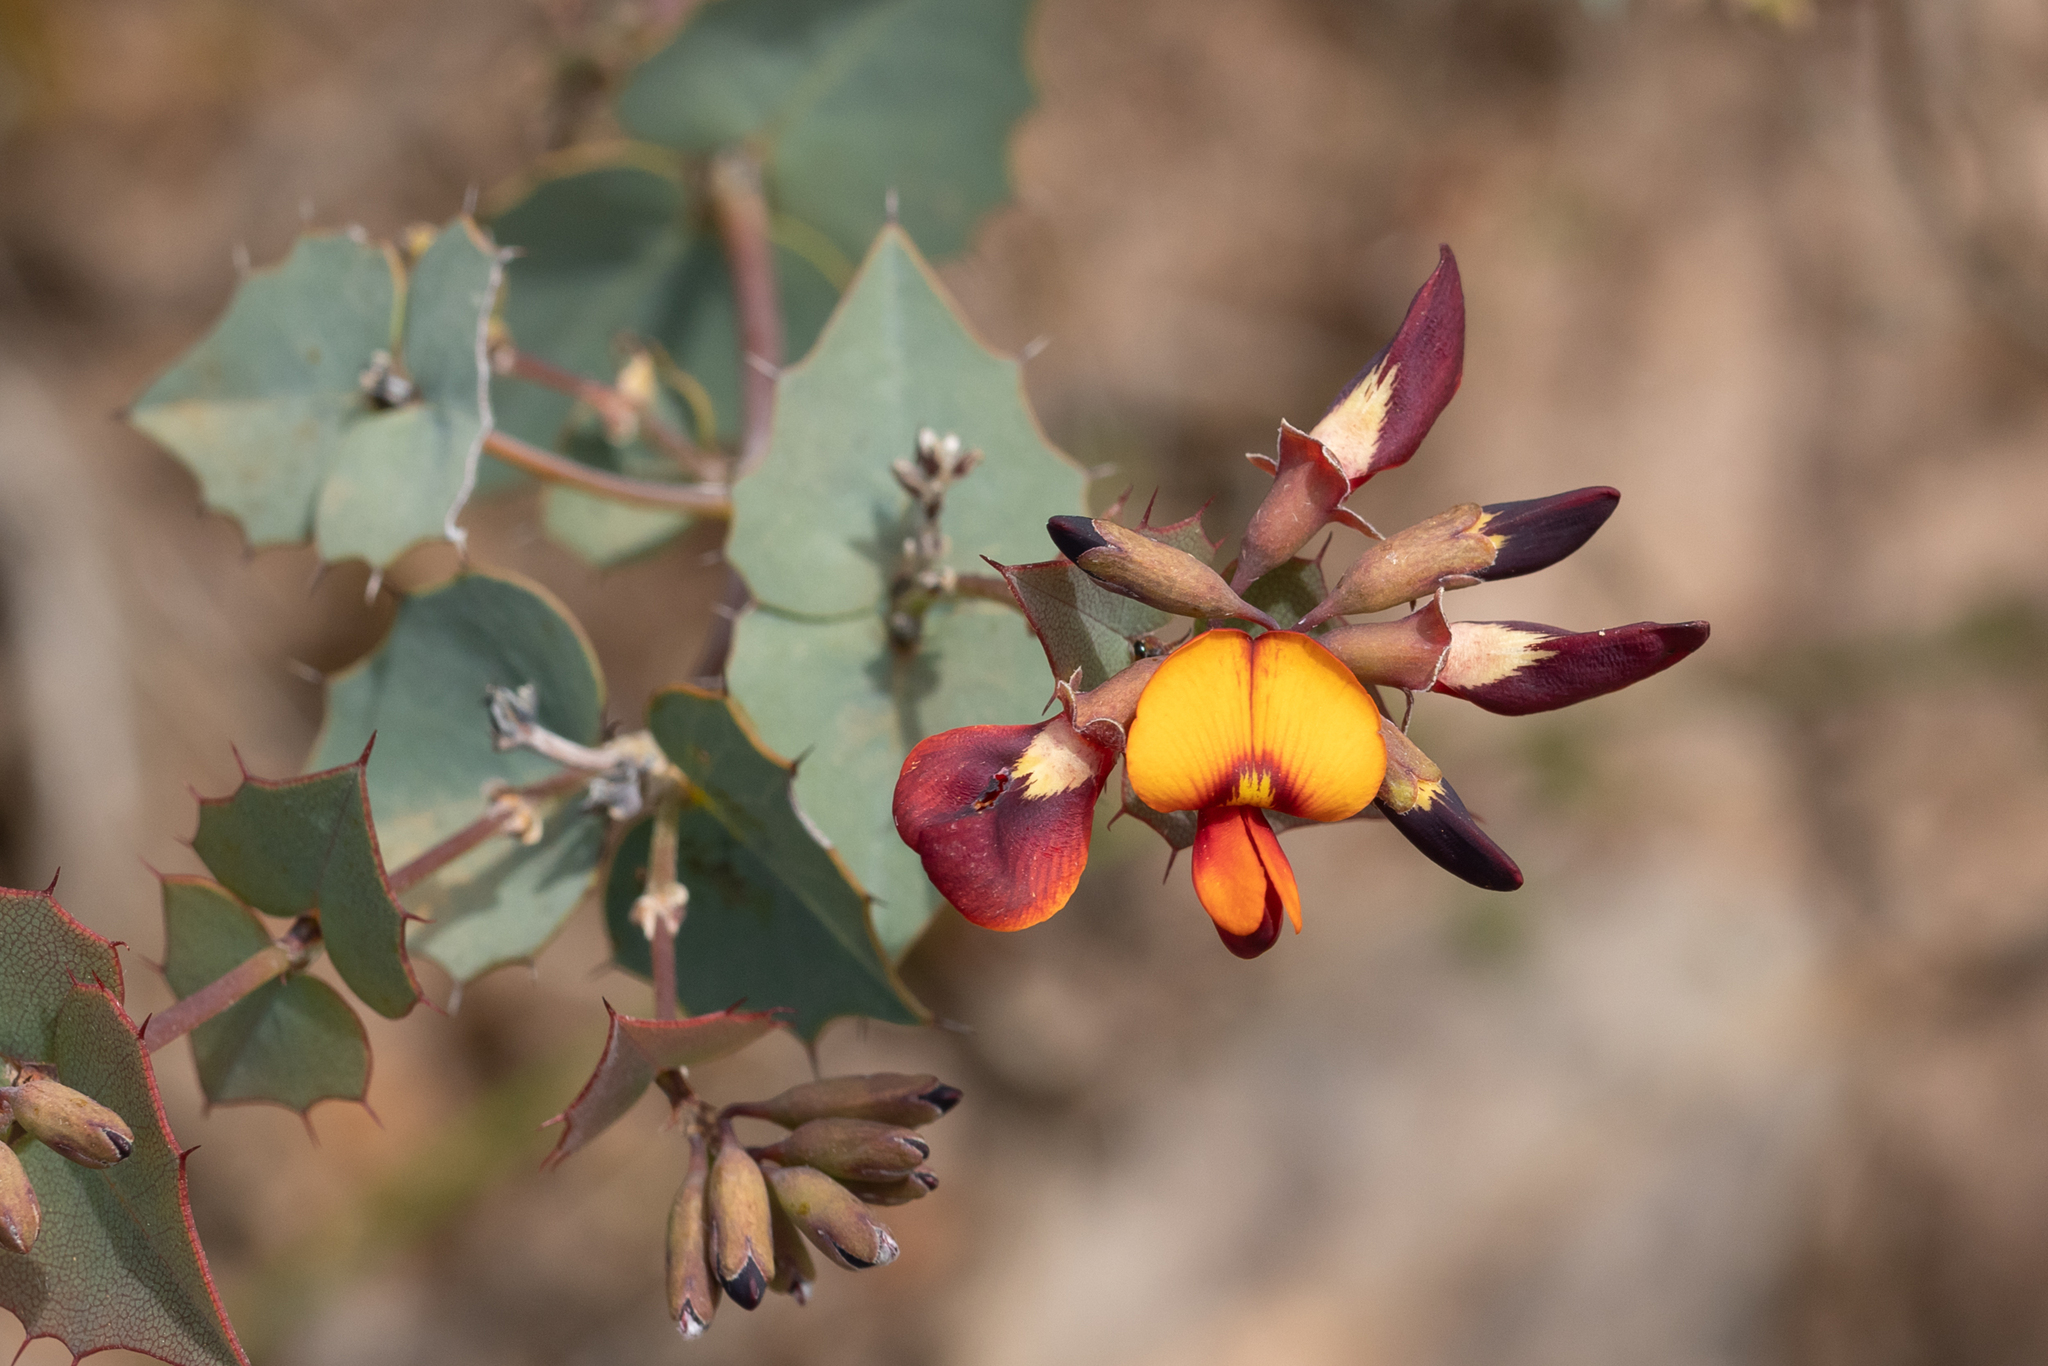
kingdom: Plantae
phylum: Tracheophyta
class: Magnoliopsida
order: Fabales
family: Fabaceae
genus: Gastrolobium
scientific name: Gastrolobium spinosum
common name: Prickly poison
